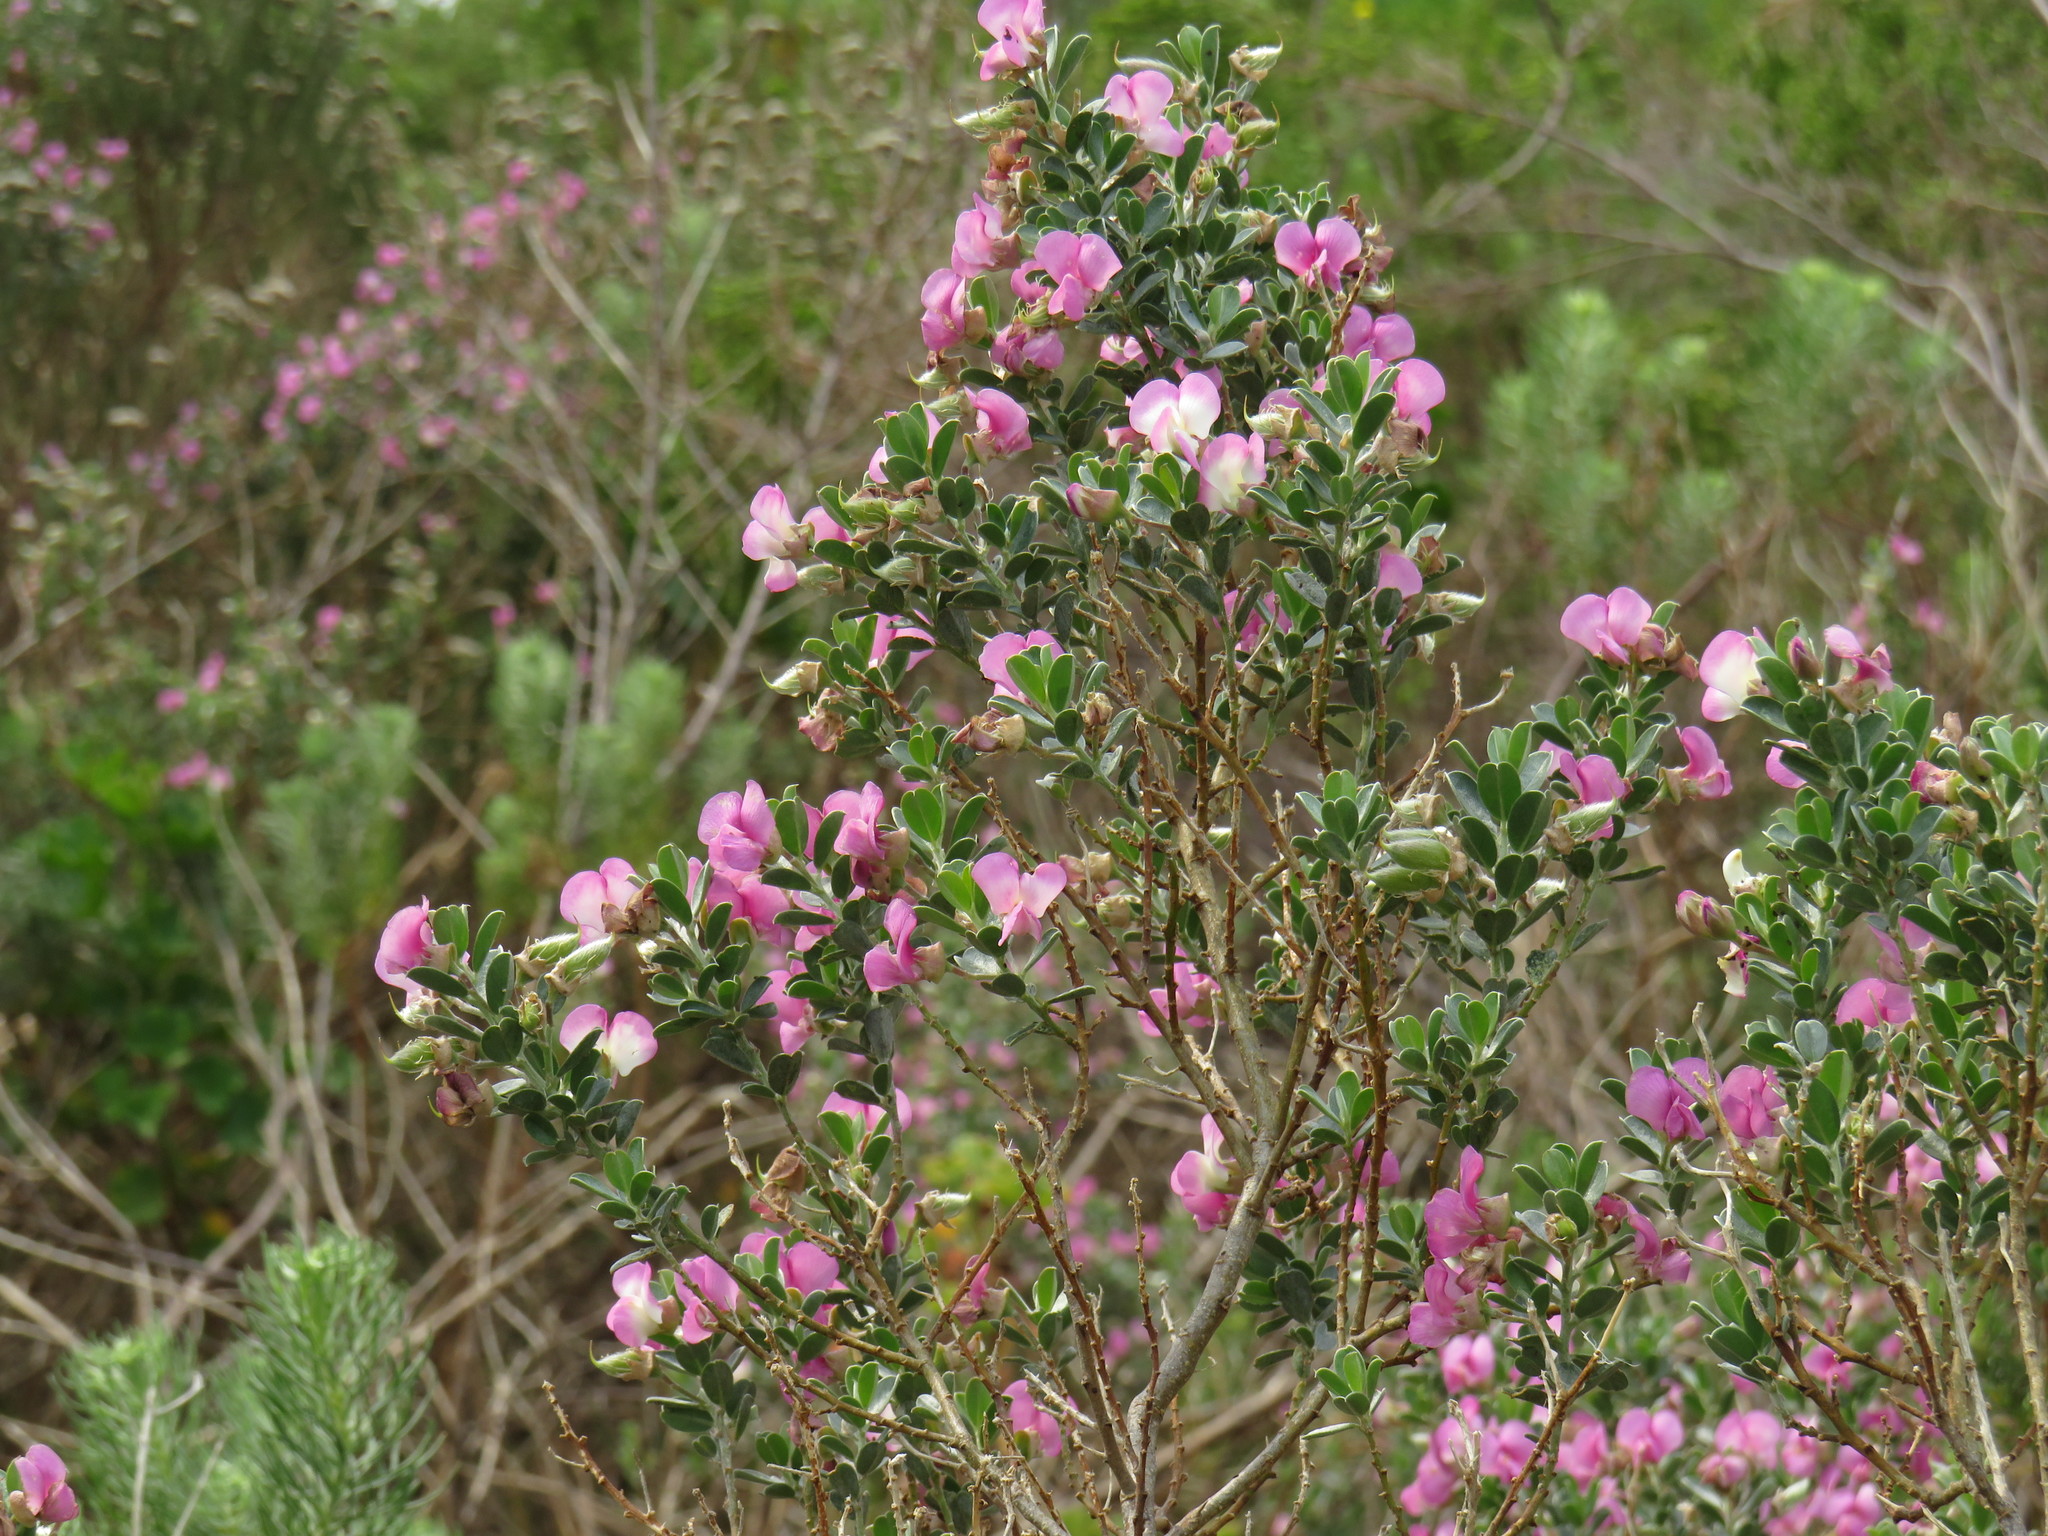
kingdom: Plantae
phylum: Tracheophyta
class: Magnoliopsida
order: Fabales
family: Fabaceae
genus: Podalyria
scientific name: Podalyria myrtillifolia
